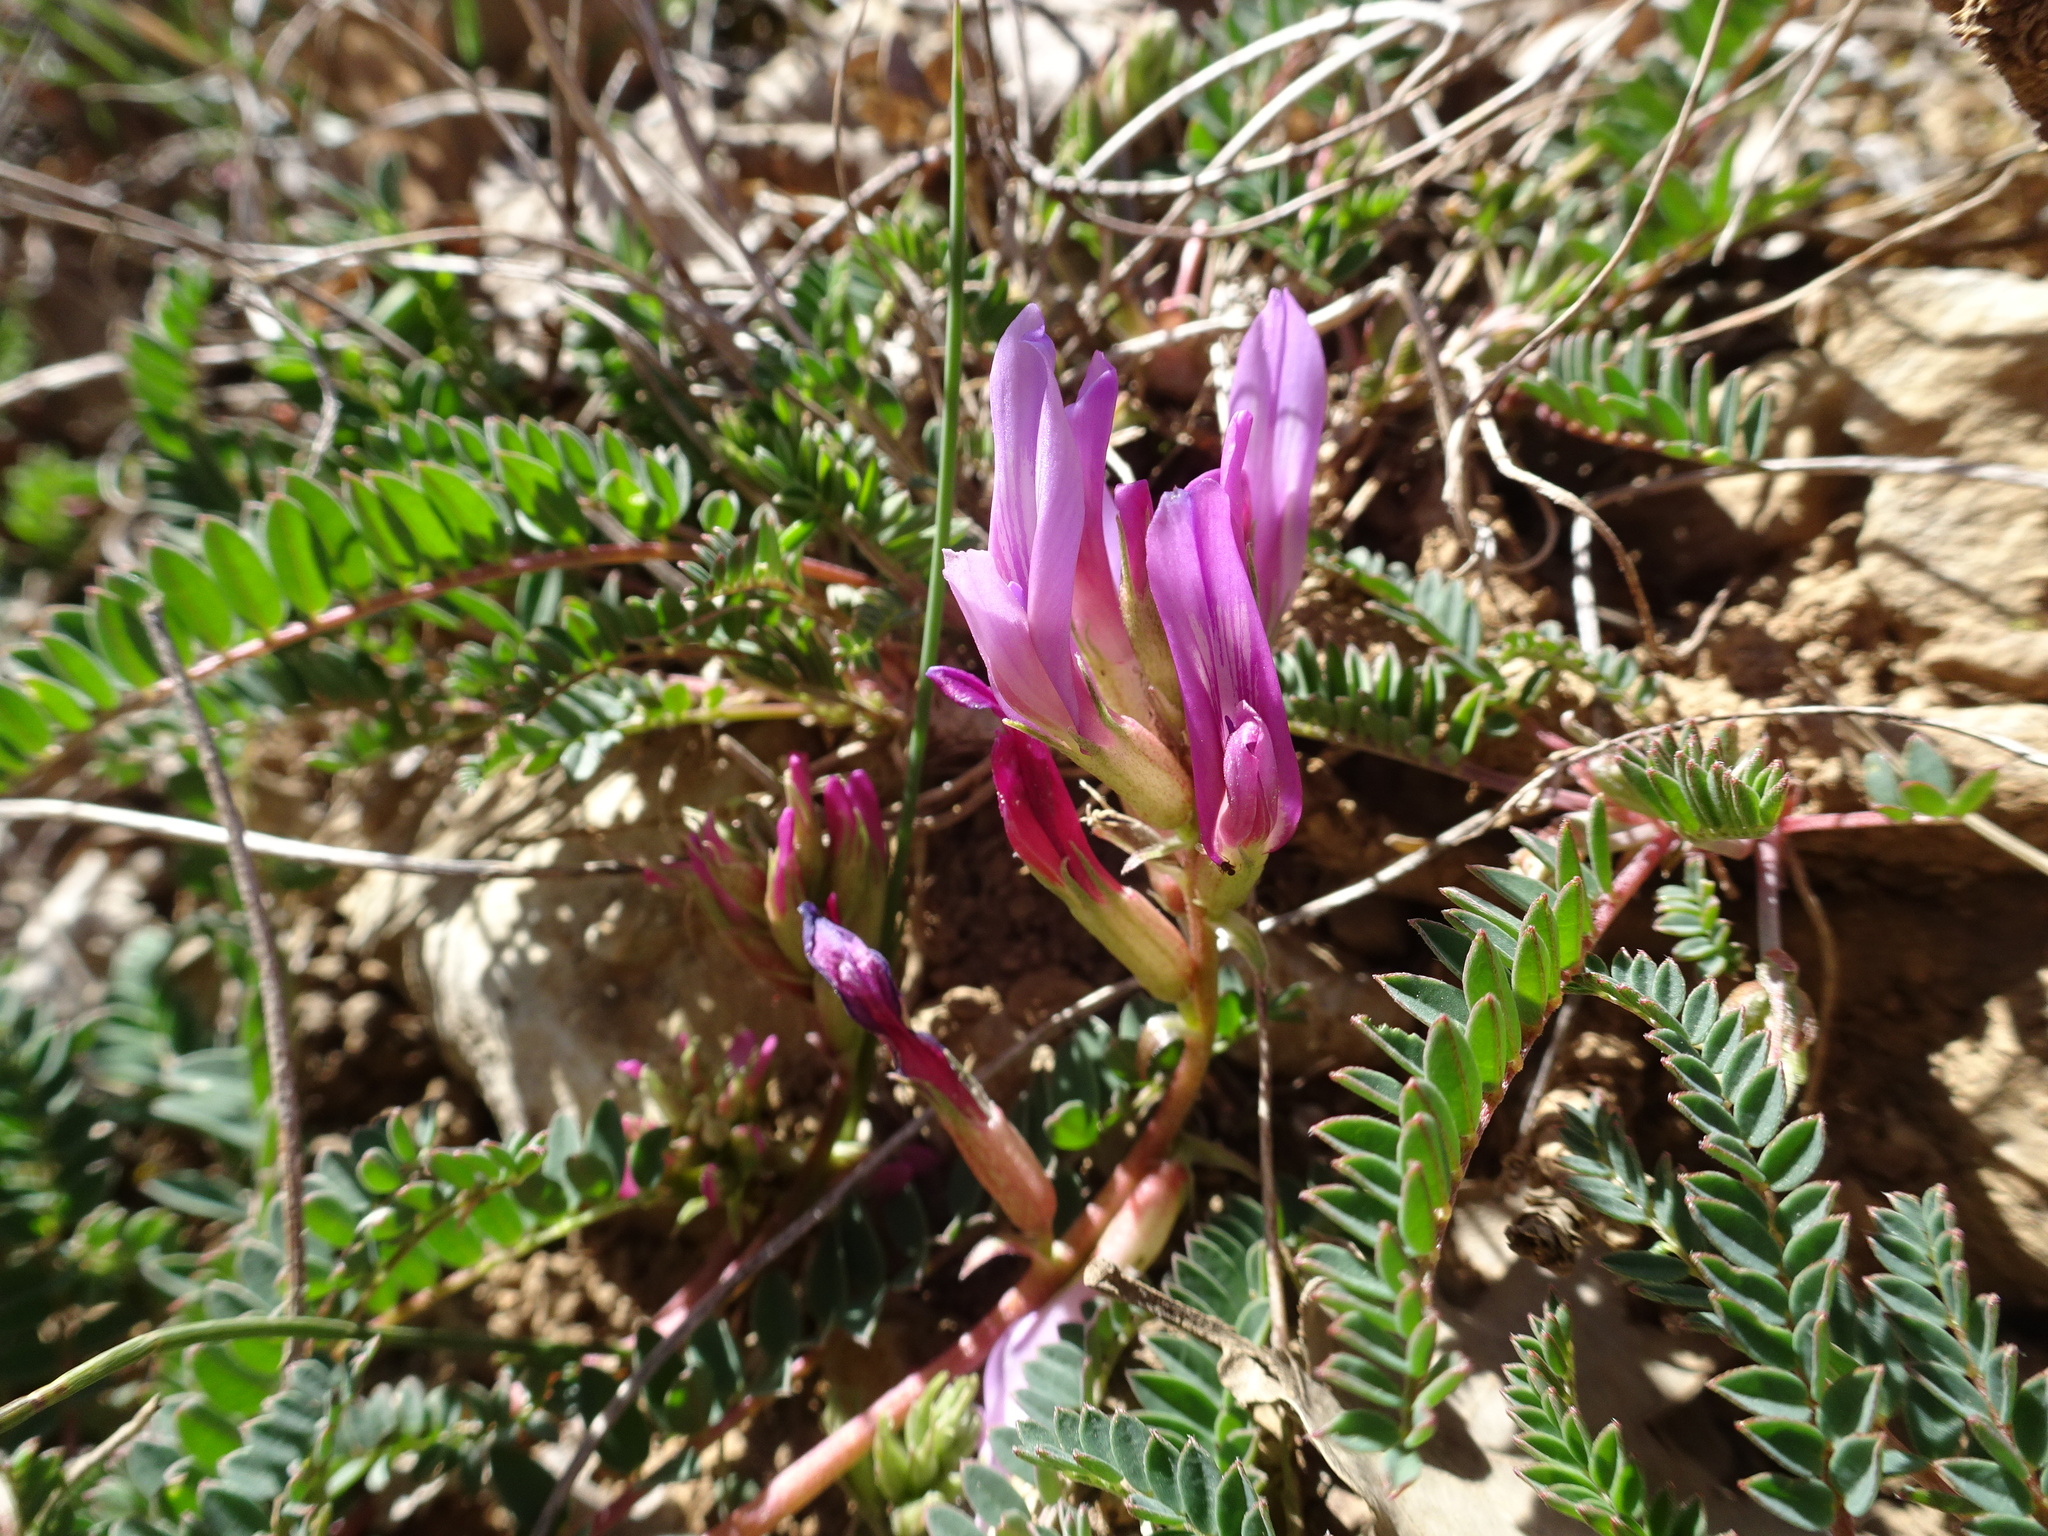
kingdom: Plantae
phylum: Tracheophyta
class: Magnoliopsida
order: Fabales
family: Fabaceae
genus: Astragalus
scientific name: Astragalus monspessulanus
